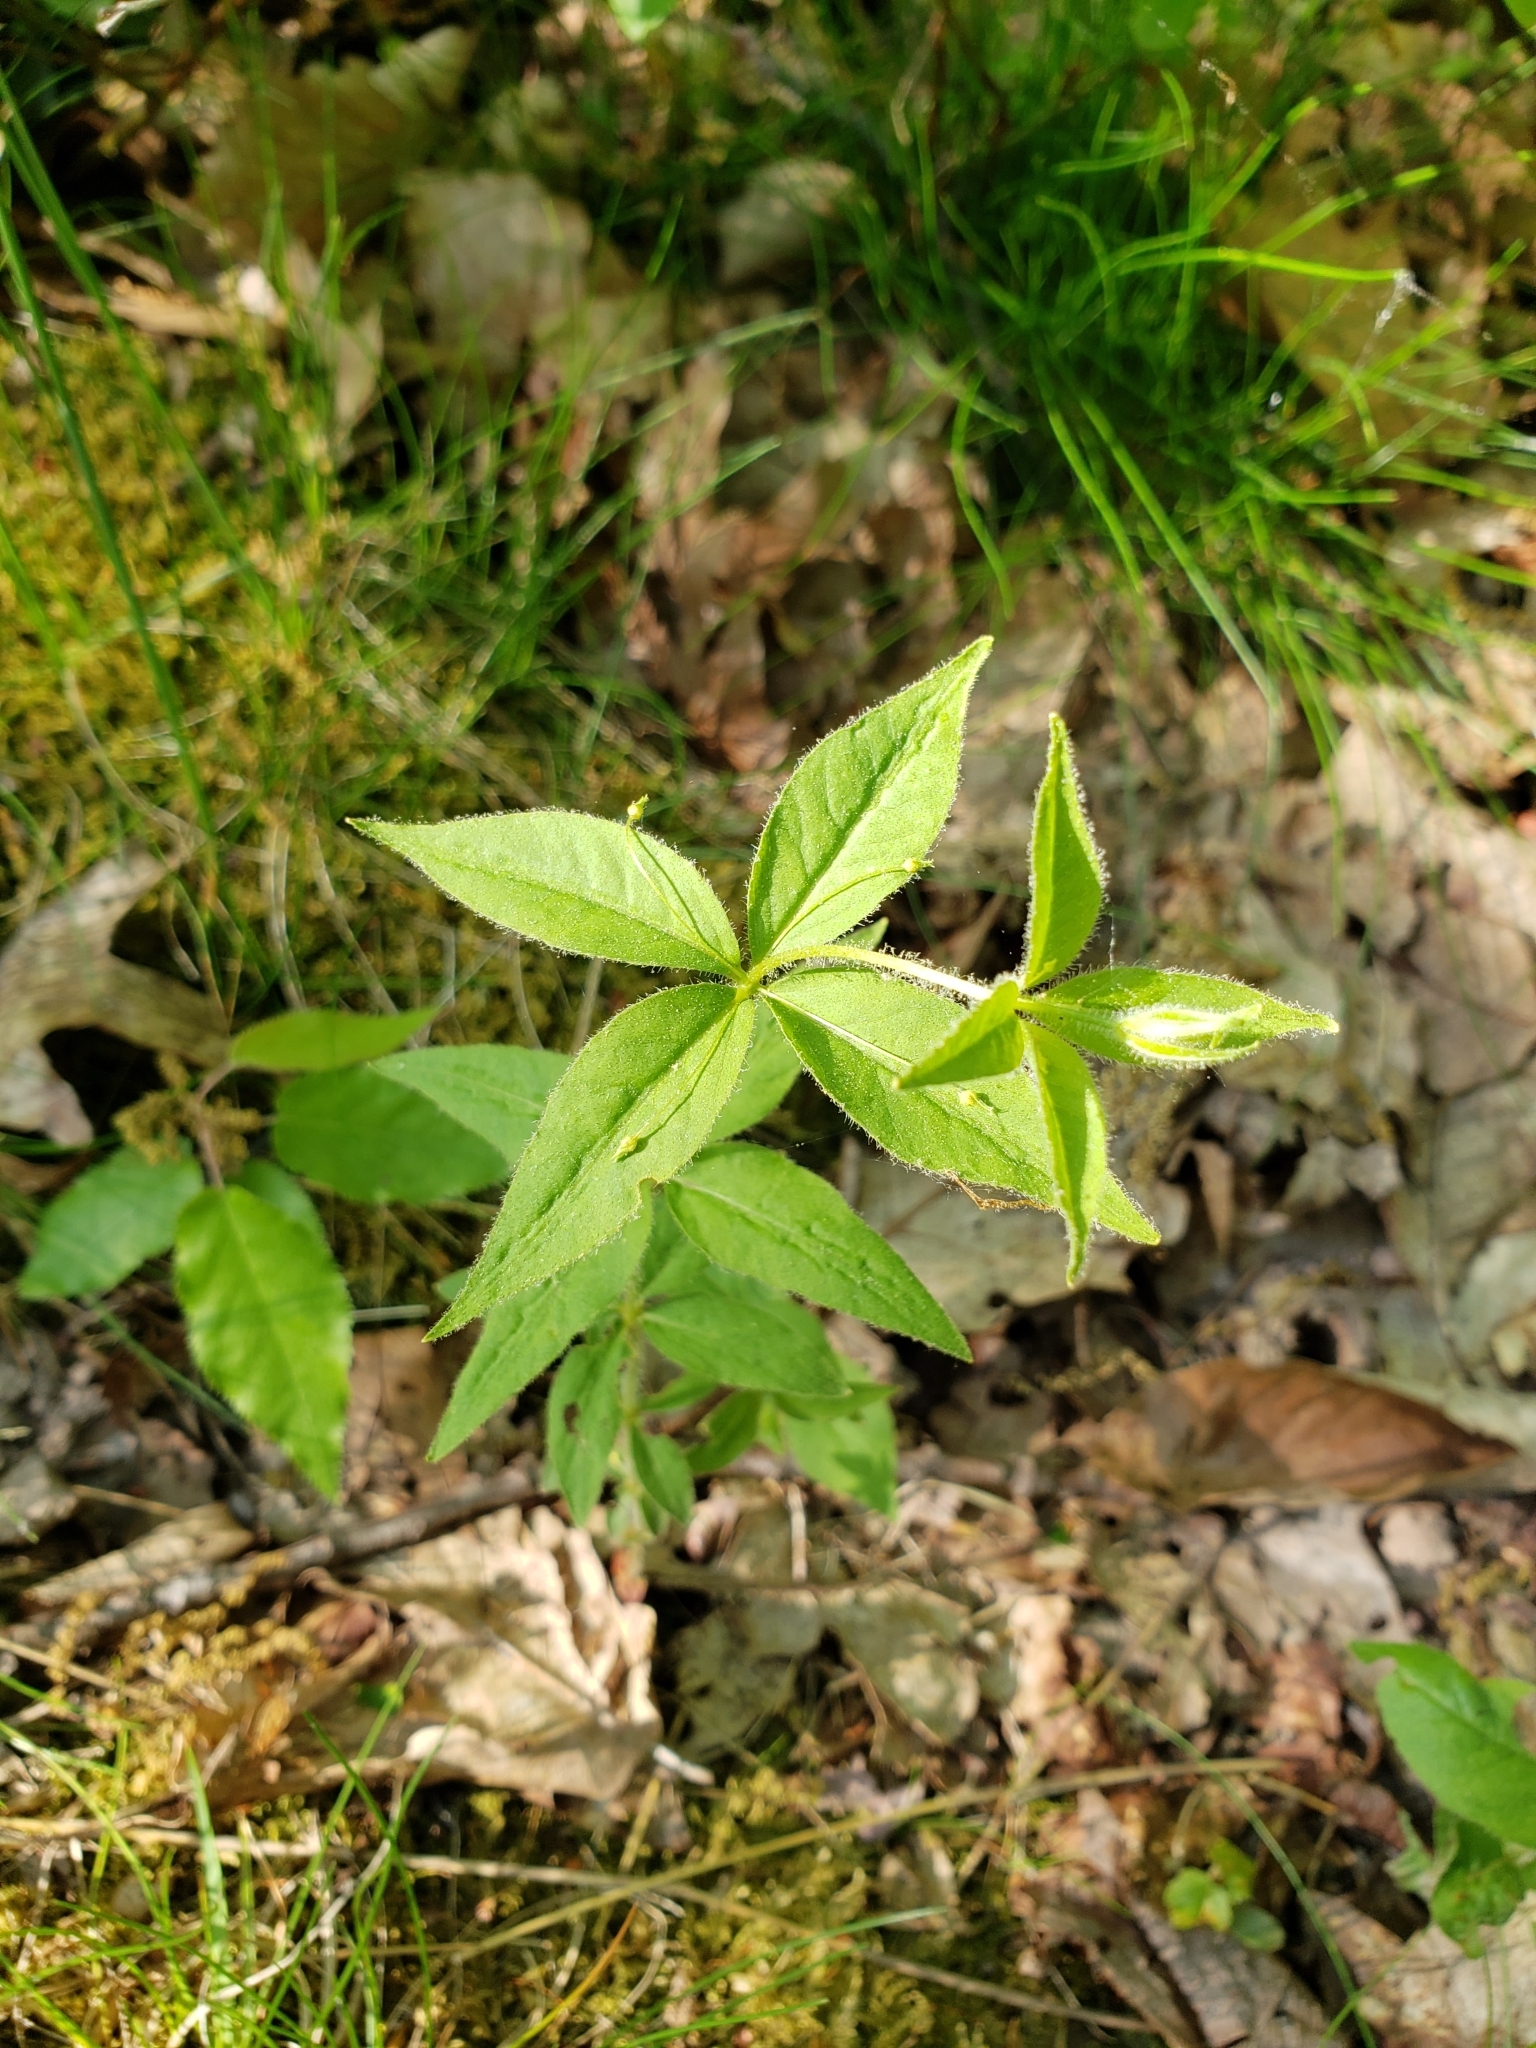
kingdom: Plantae
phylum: Tracheophyta
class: Magnoliopsida
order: Ericales
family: Primulaceae
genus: Lysimachia
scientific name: Lysimachia quadrifolia
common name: Whorled loosestrife
